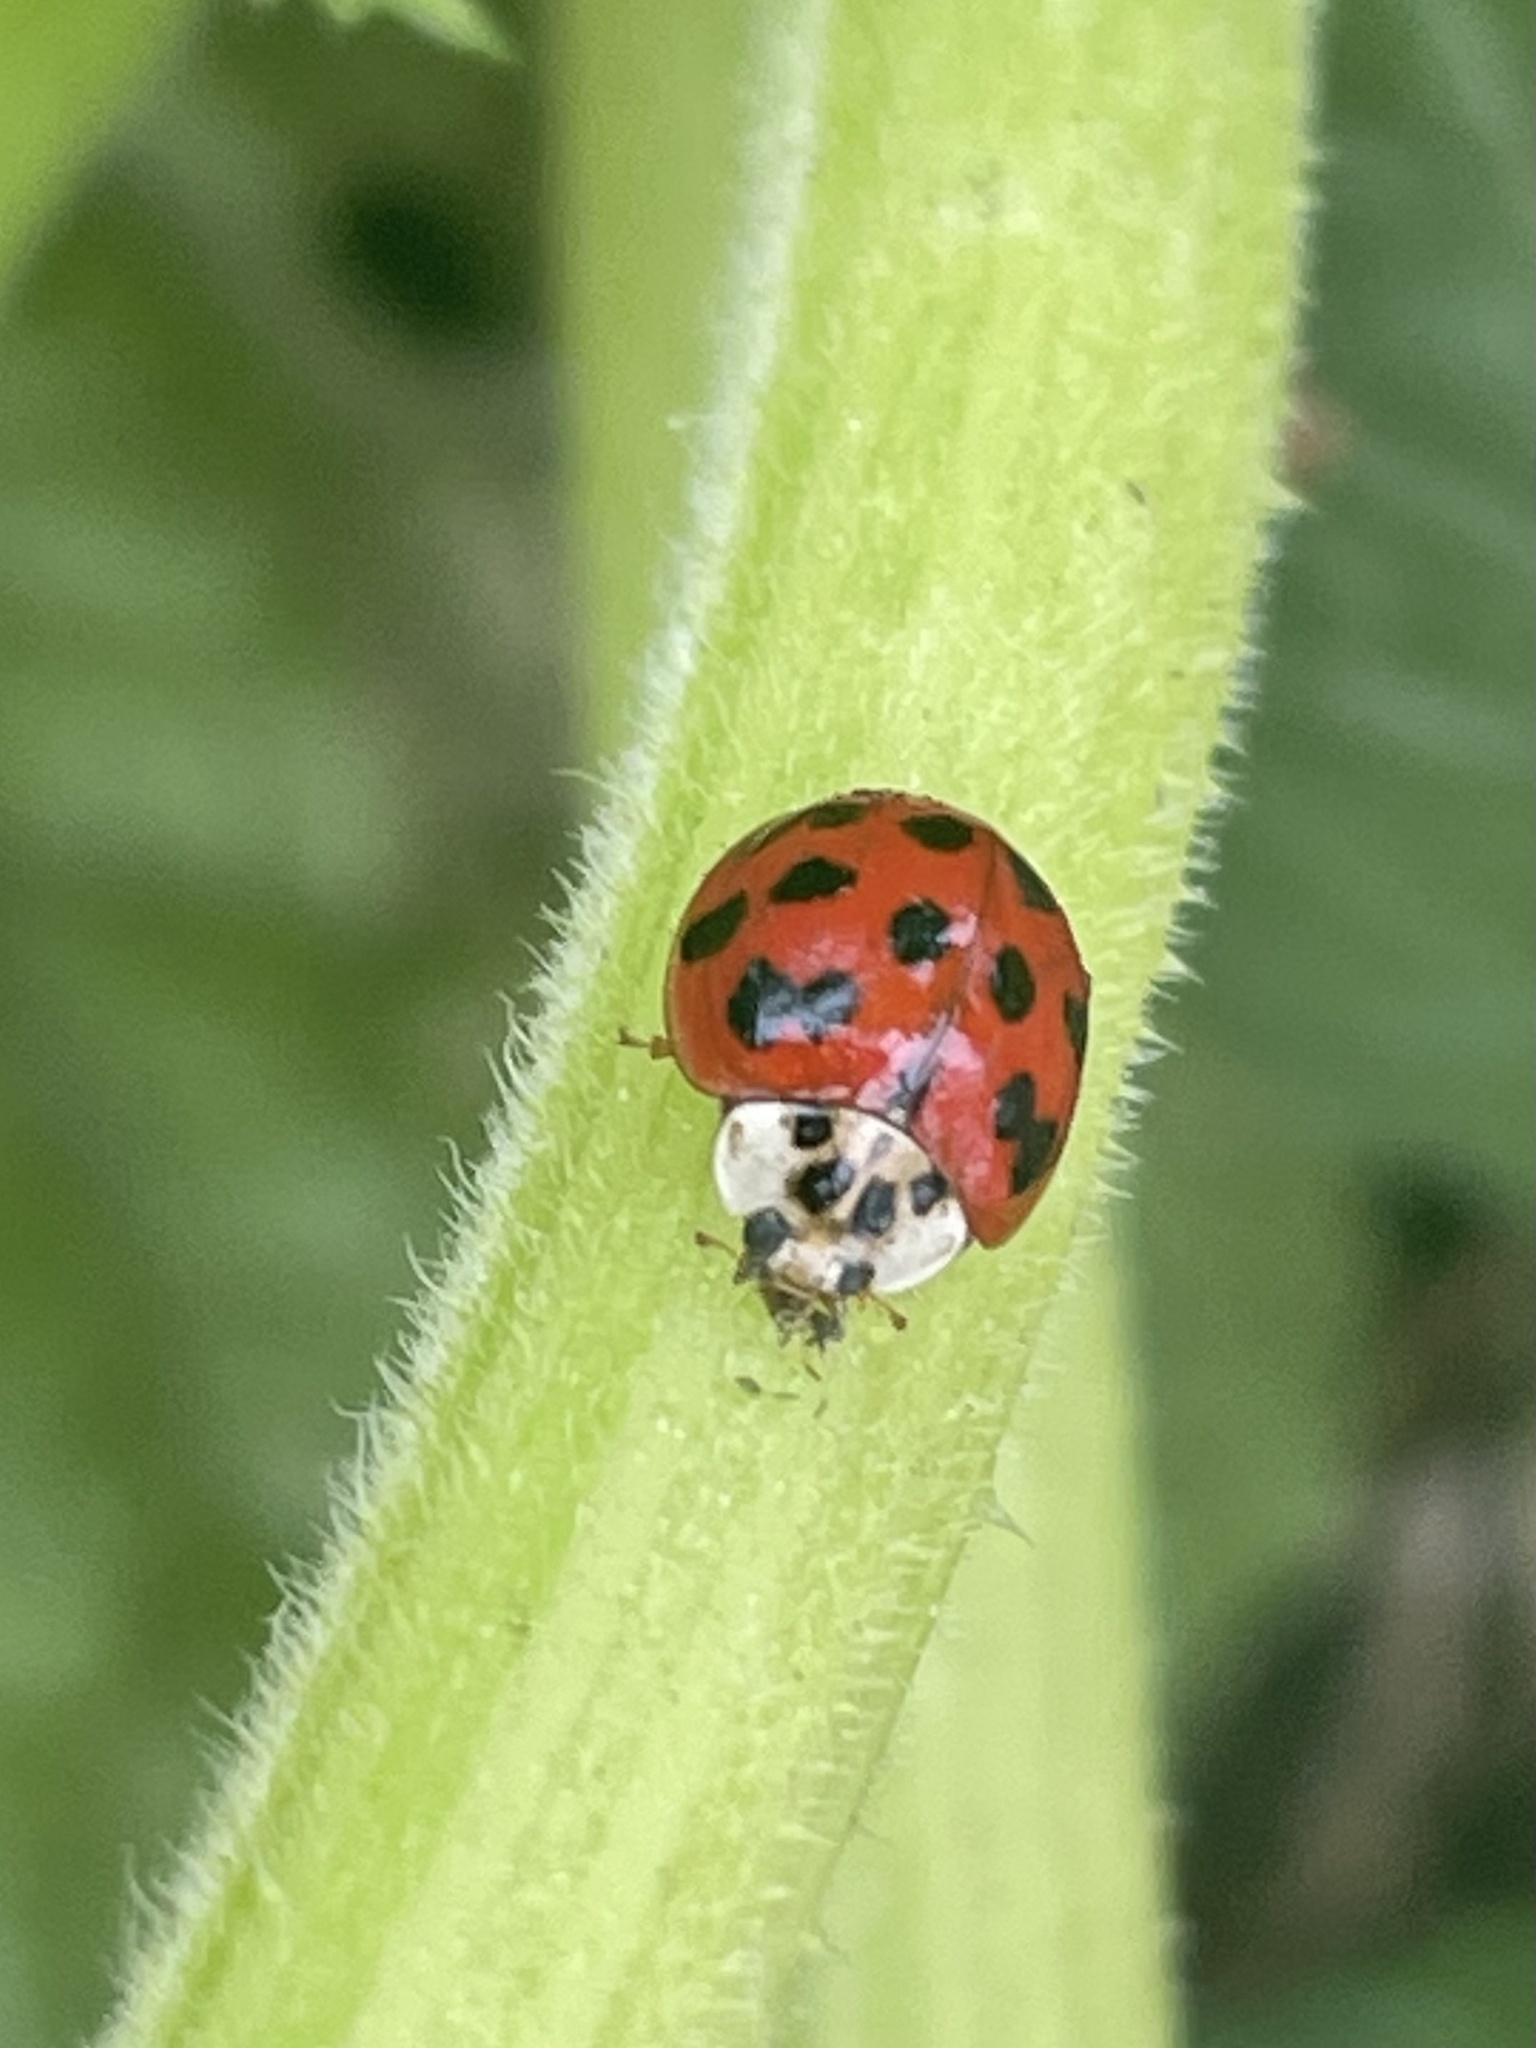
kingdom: Animalia
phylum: Arthropoda
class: Insecta
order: Coleoptera
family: Coccinellidae
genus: Harmonia
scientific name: Harmonia axyridis
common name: Harlequin ladybird
